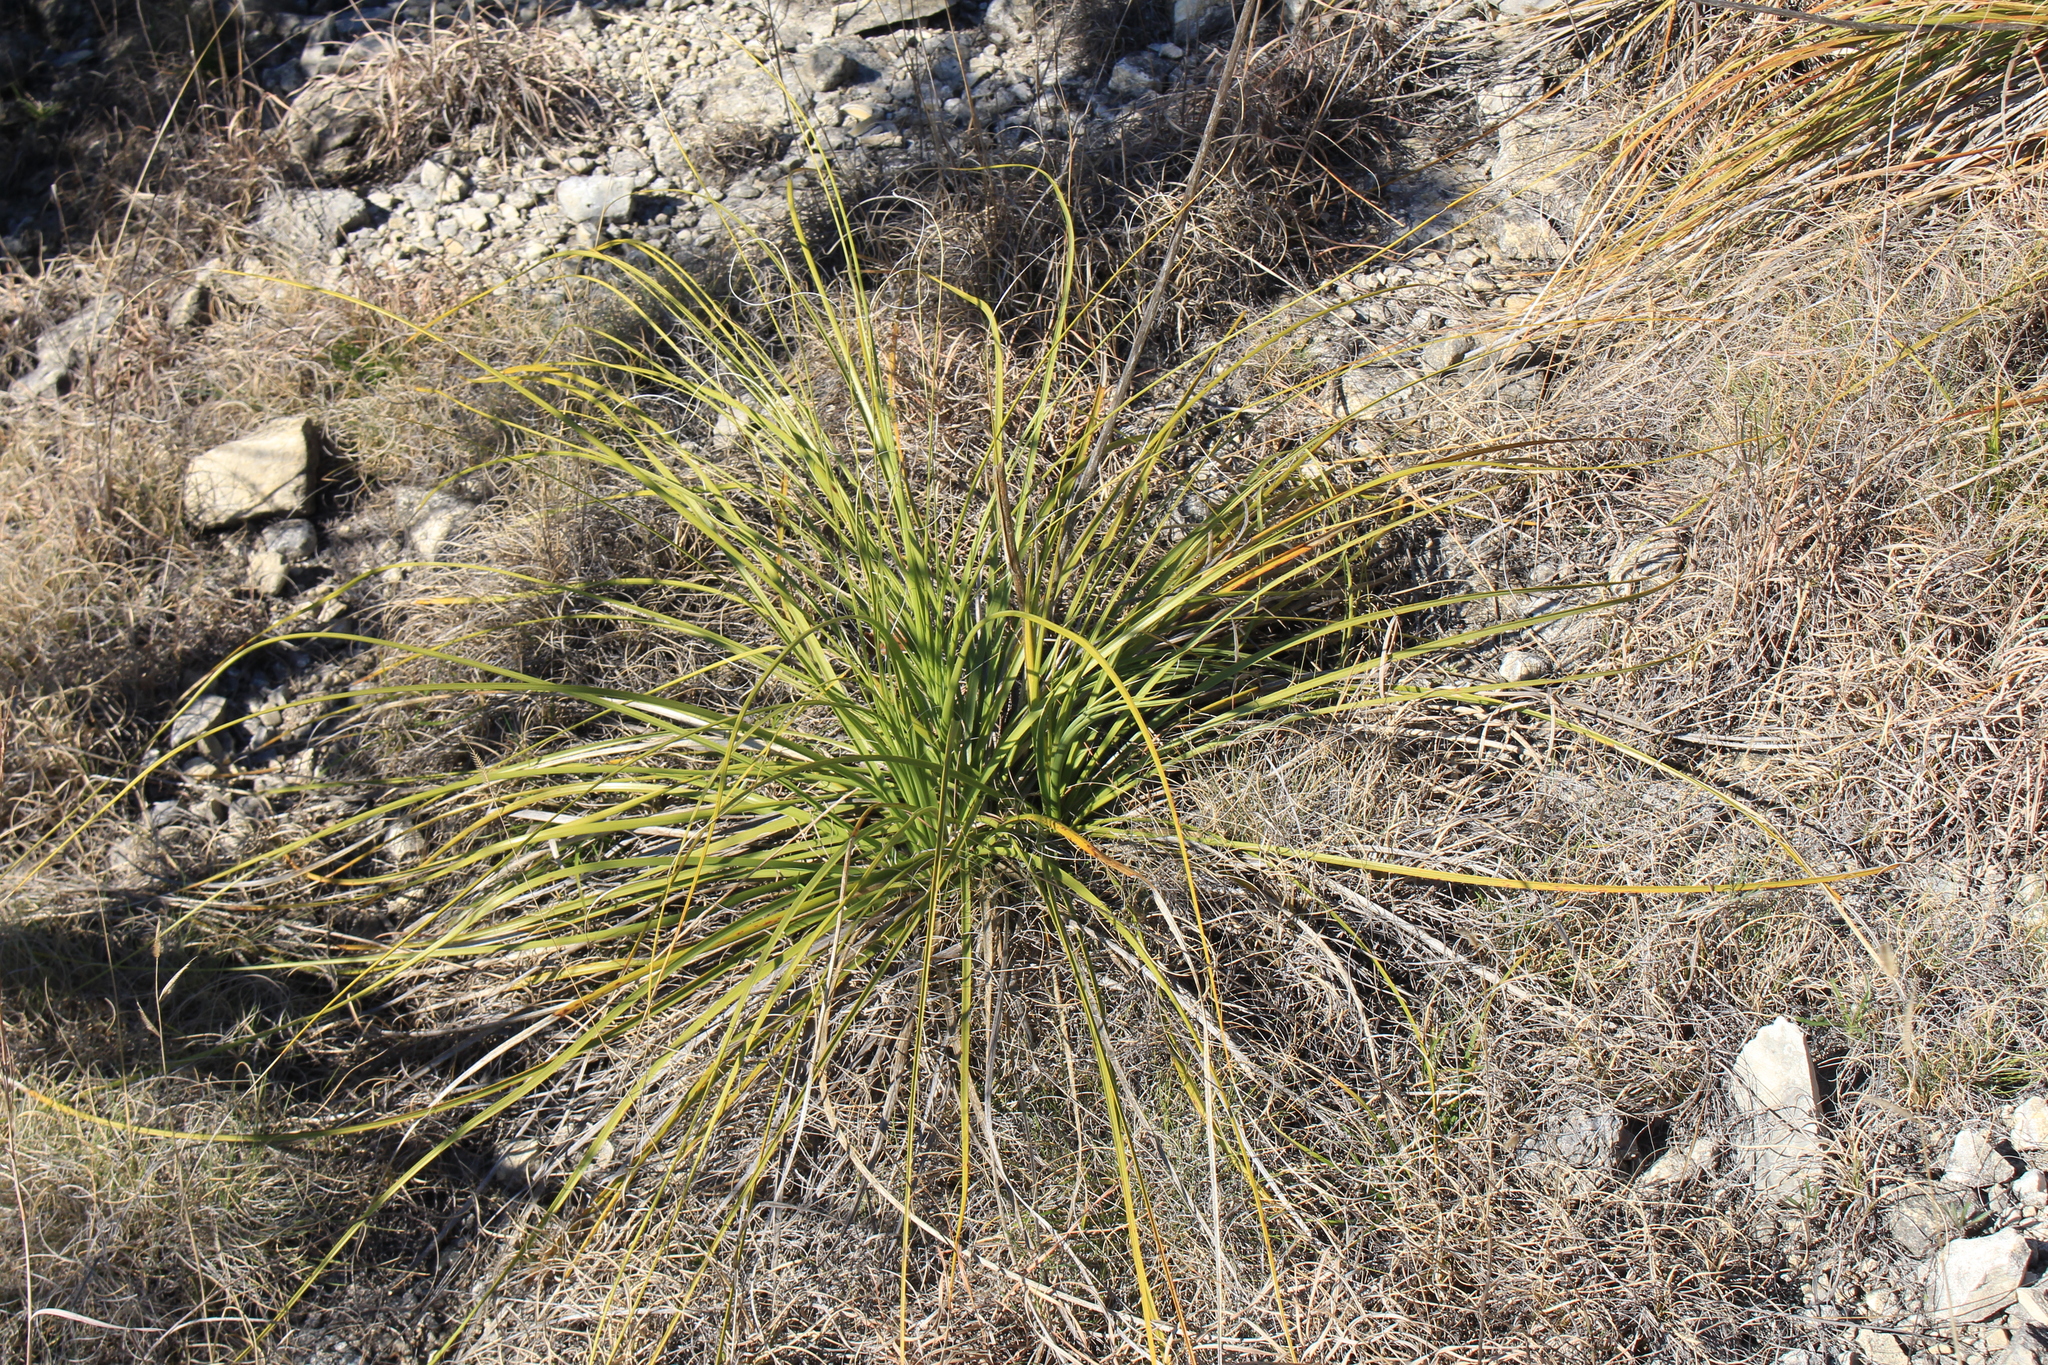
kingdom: Plantae
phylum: Tracheophyta
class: Liliopsida
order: Asparagales
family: Asparagaceae
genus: Nolina
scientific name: Nolina lindheimeriana
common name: Lindheimer's bear-grass
